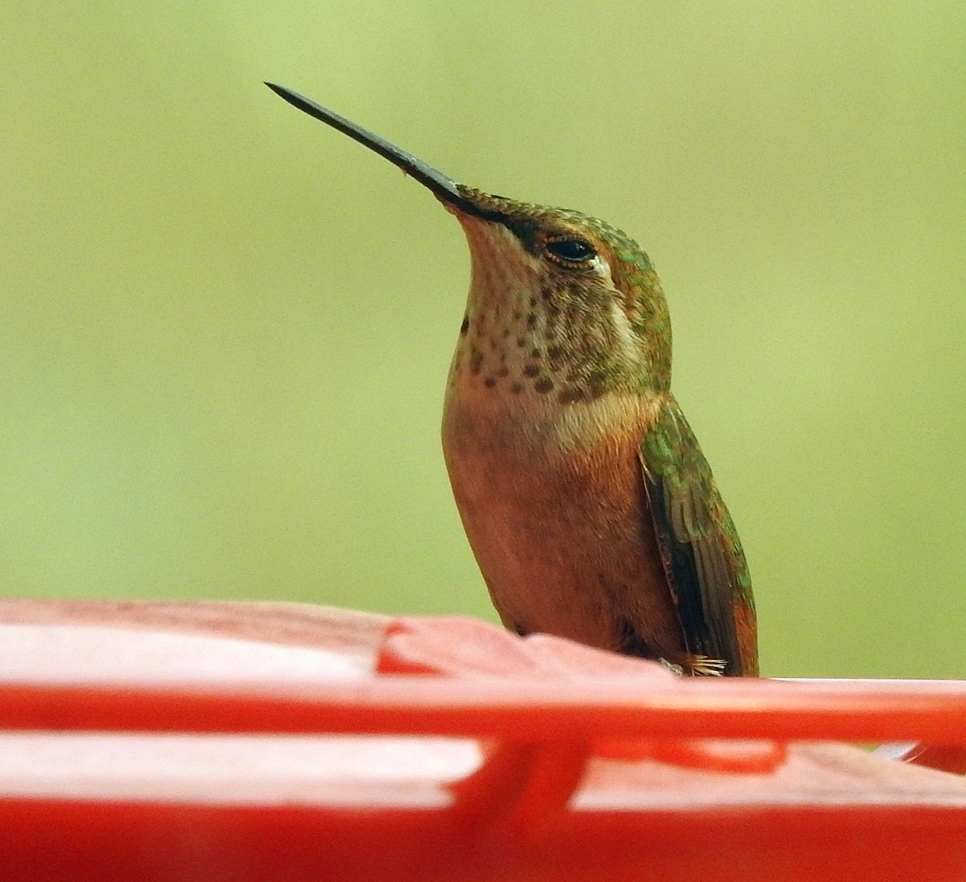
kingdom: Animalia
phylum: Chordata
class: Aves
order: Apodiformes
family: Trochilidae
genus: Selasphorus
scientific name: Selasphorus rufus
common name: Rufous hummingbird
